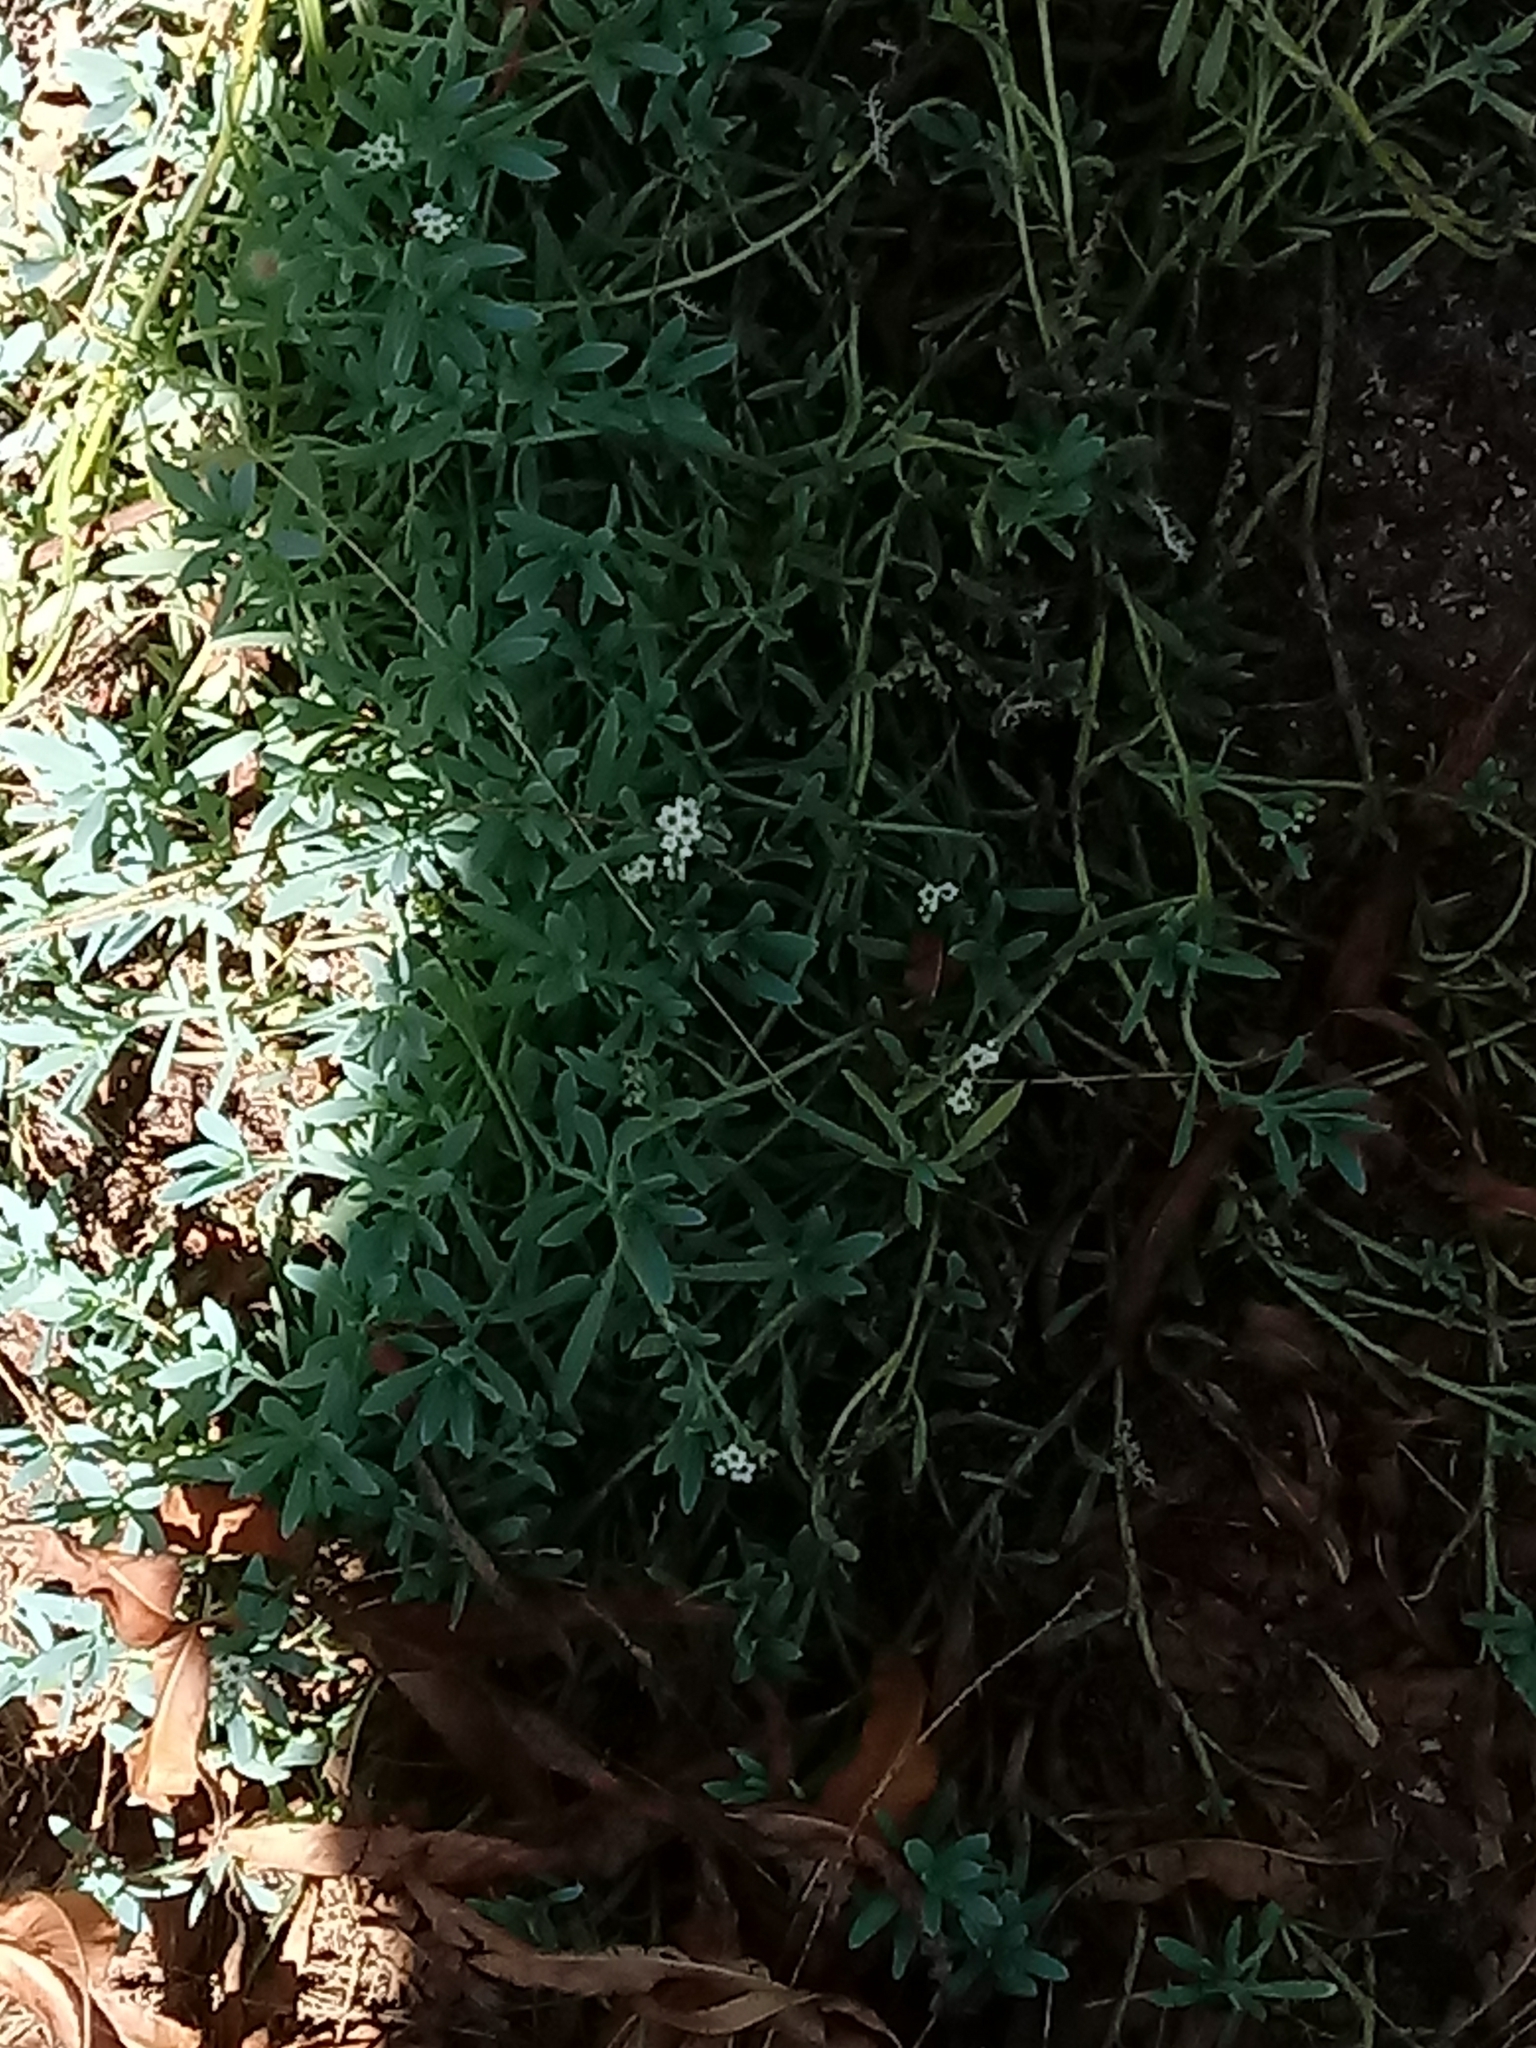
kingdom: Plantae
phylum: Tracheophyta
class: Magnoliopsida
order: Boraginales
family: Heliotropiaceae
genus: Heliotropium
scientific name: Heliotropium curassavicum
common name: Seaside heliotrope
